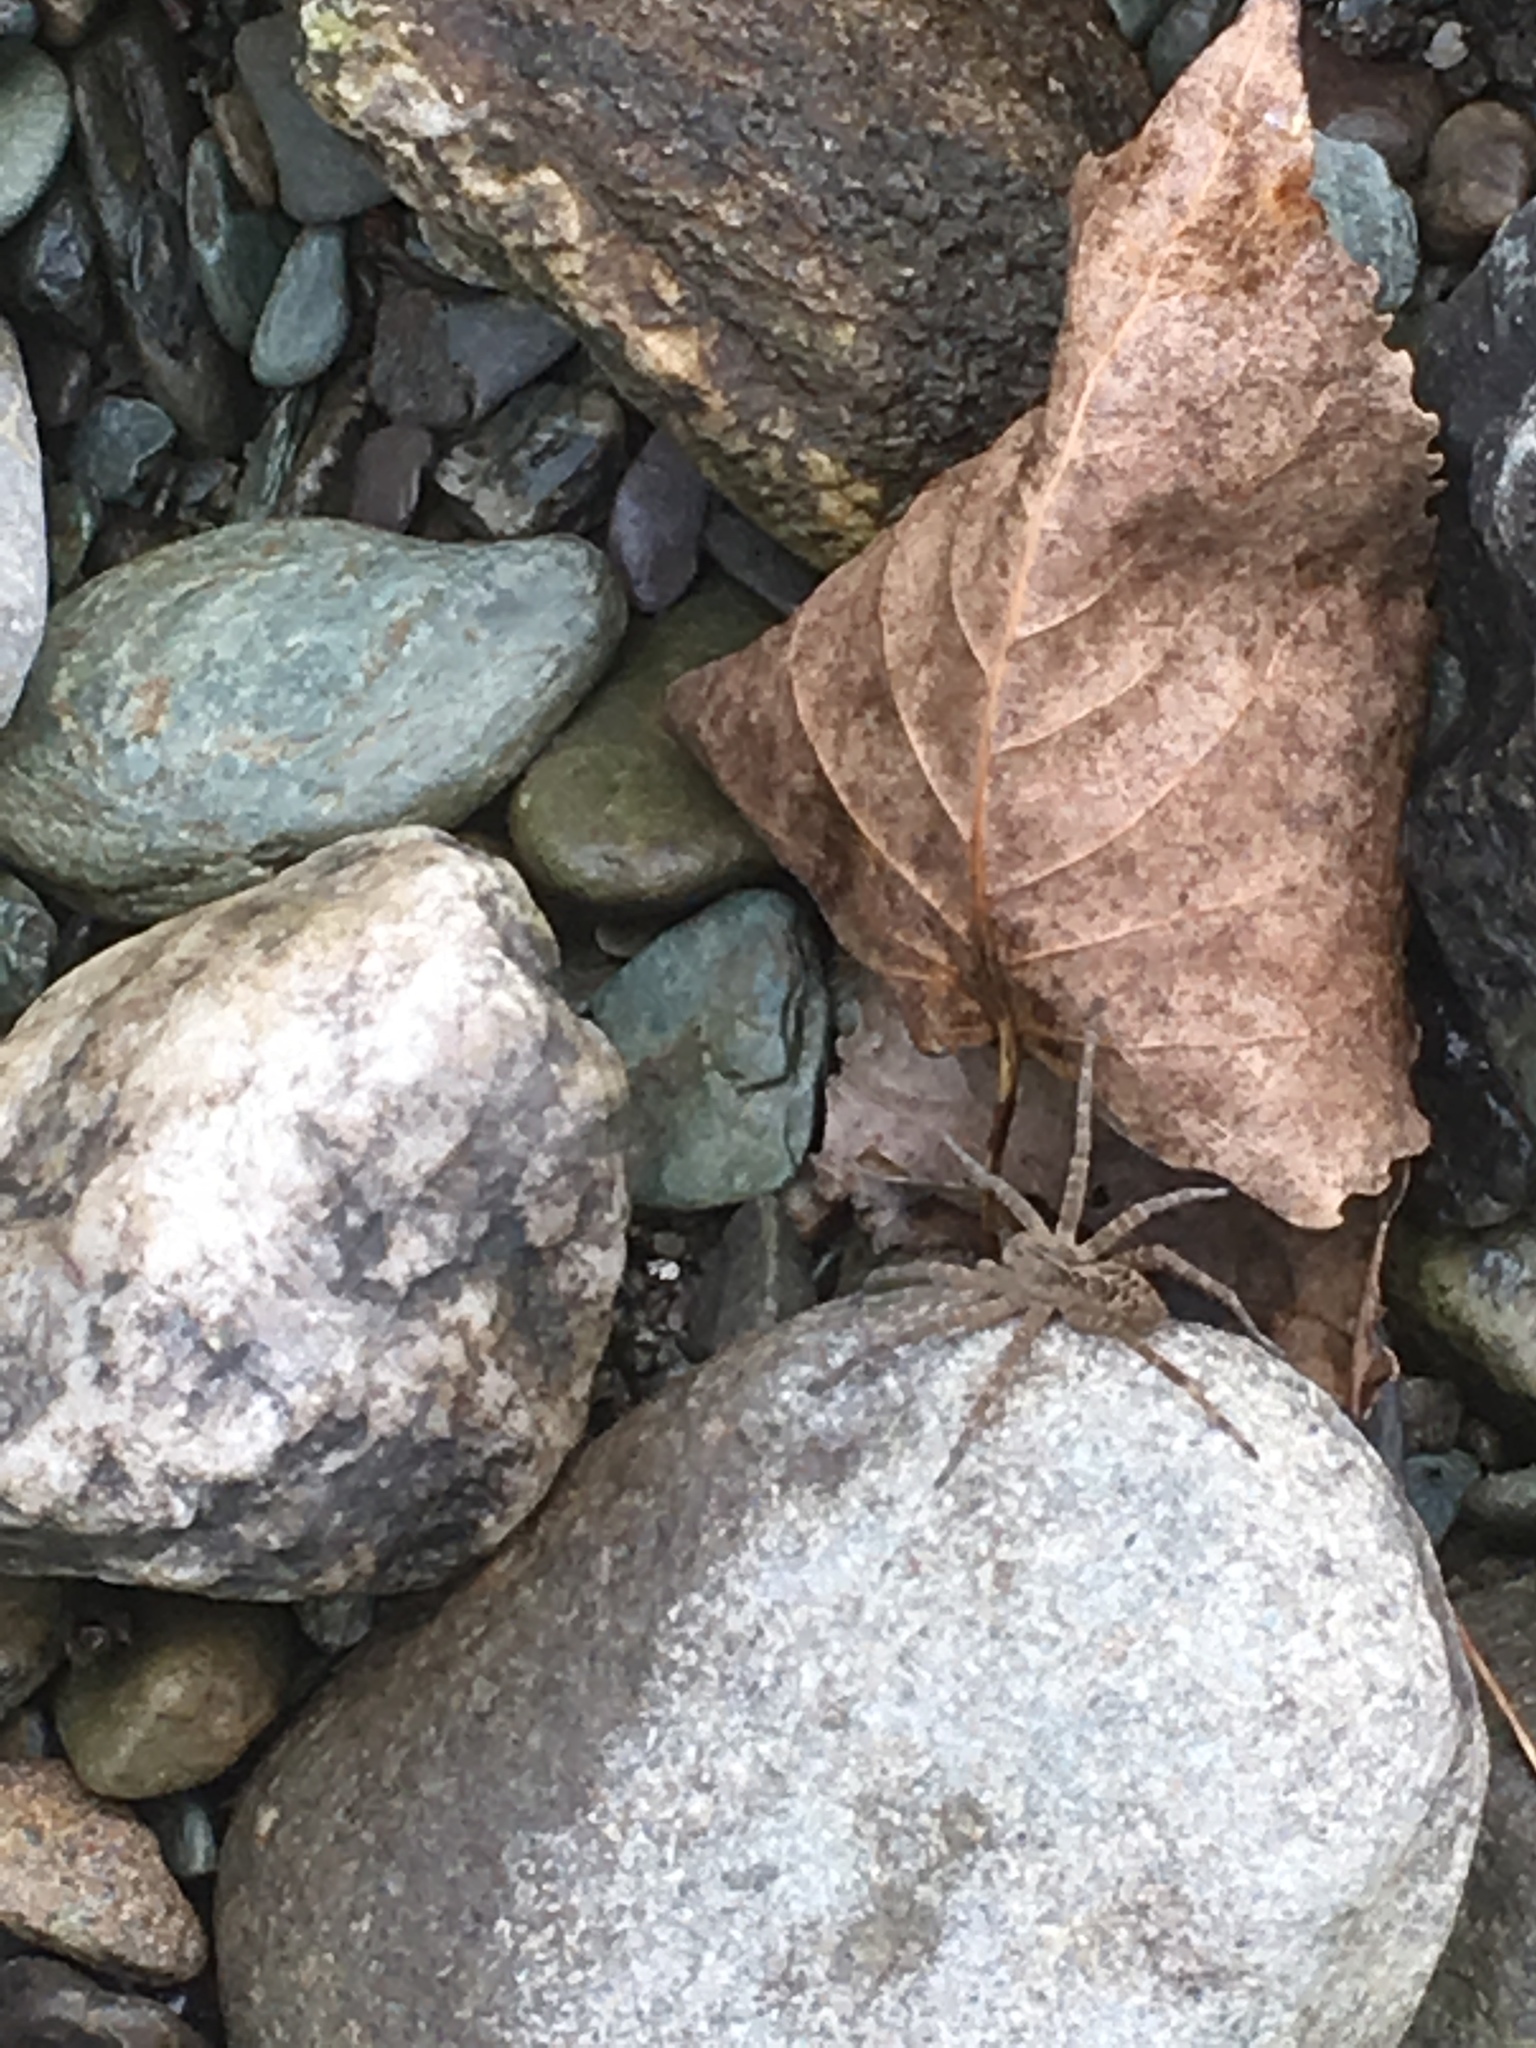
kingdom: Animalia
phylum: Arthropoda
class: Arachnida
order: Araneae
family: Pisauridae
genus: Dolomedes
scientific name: Dolomedes scriptus
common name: Striped fishing spider
